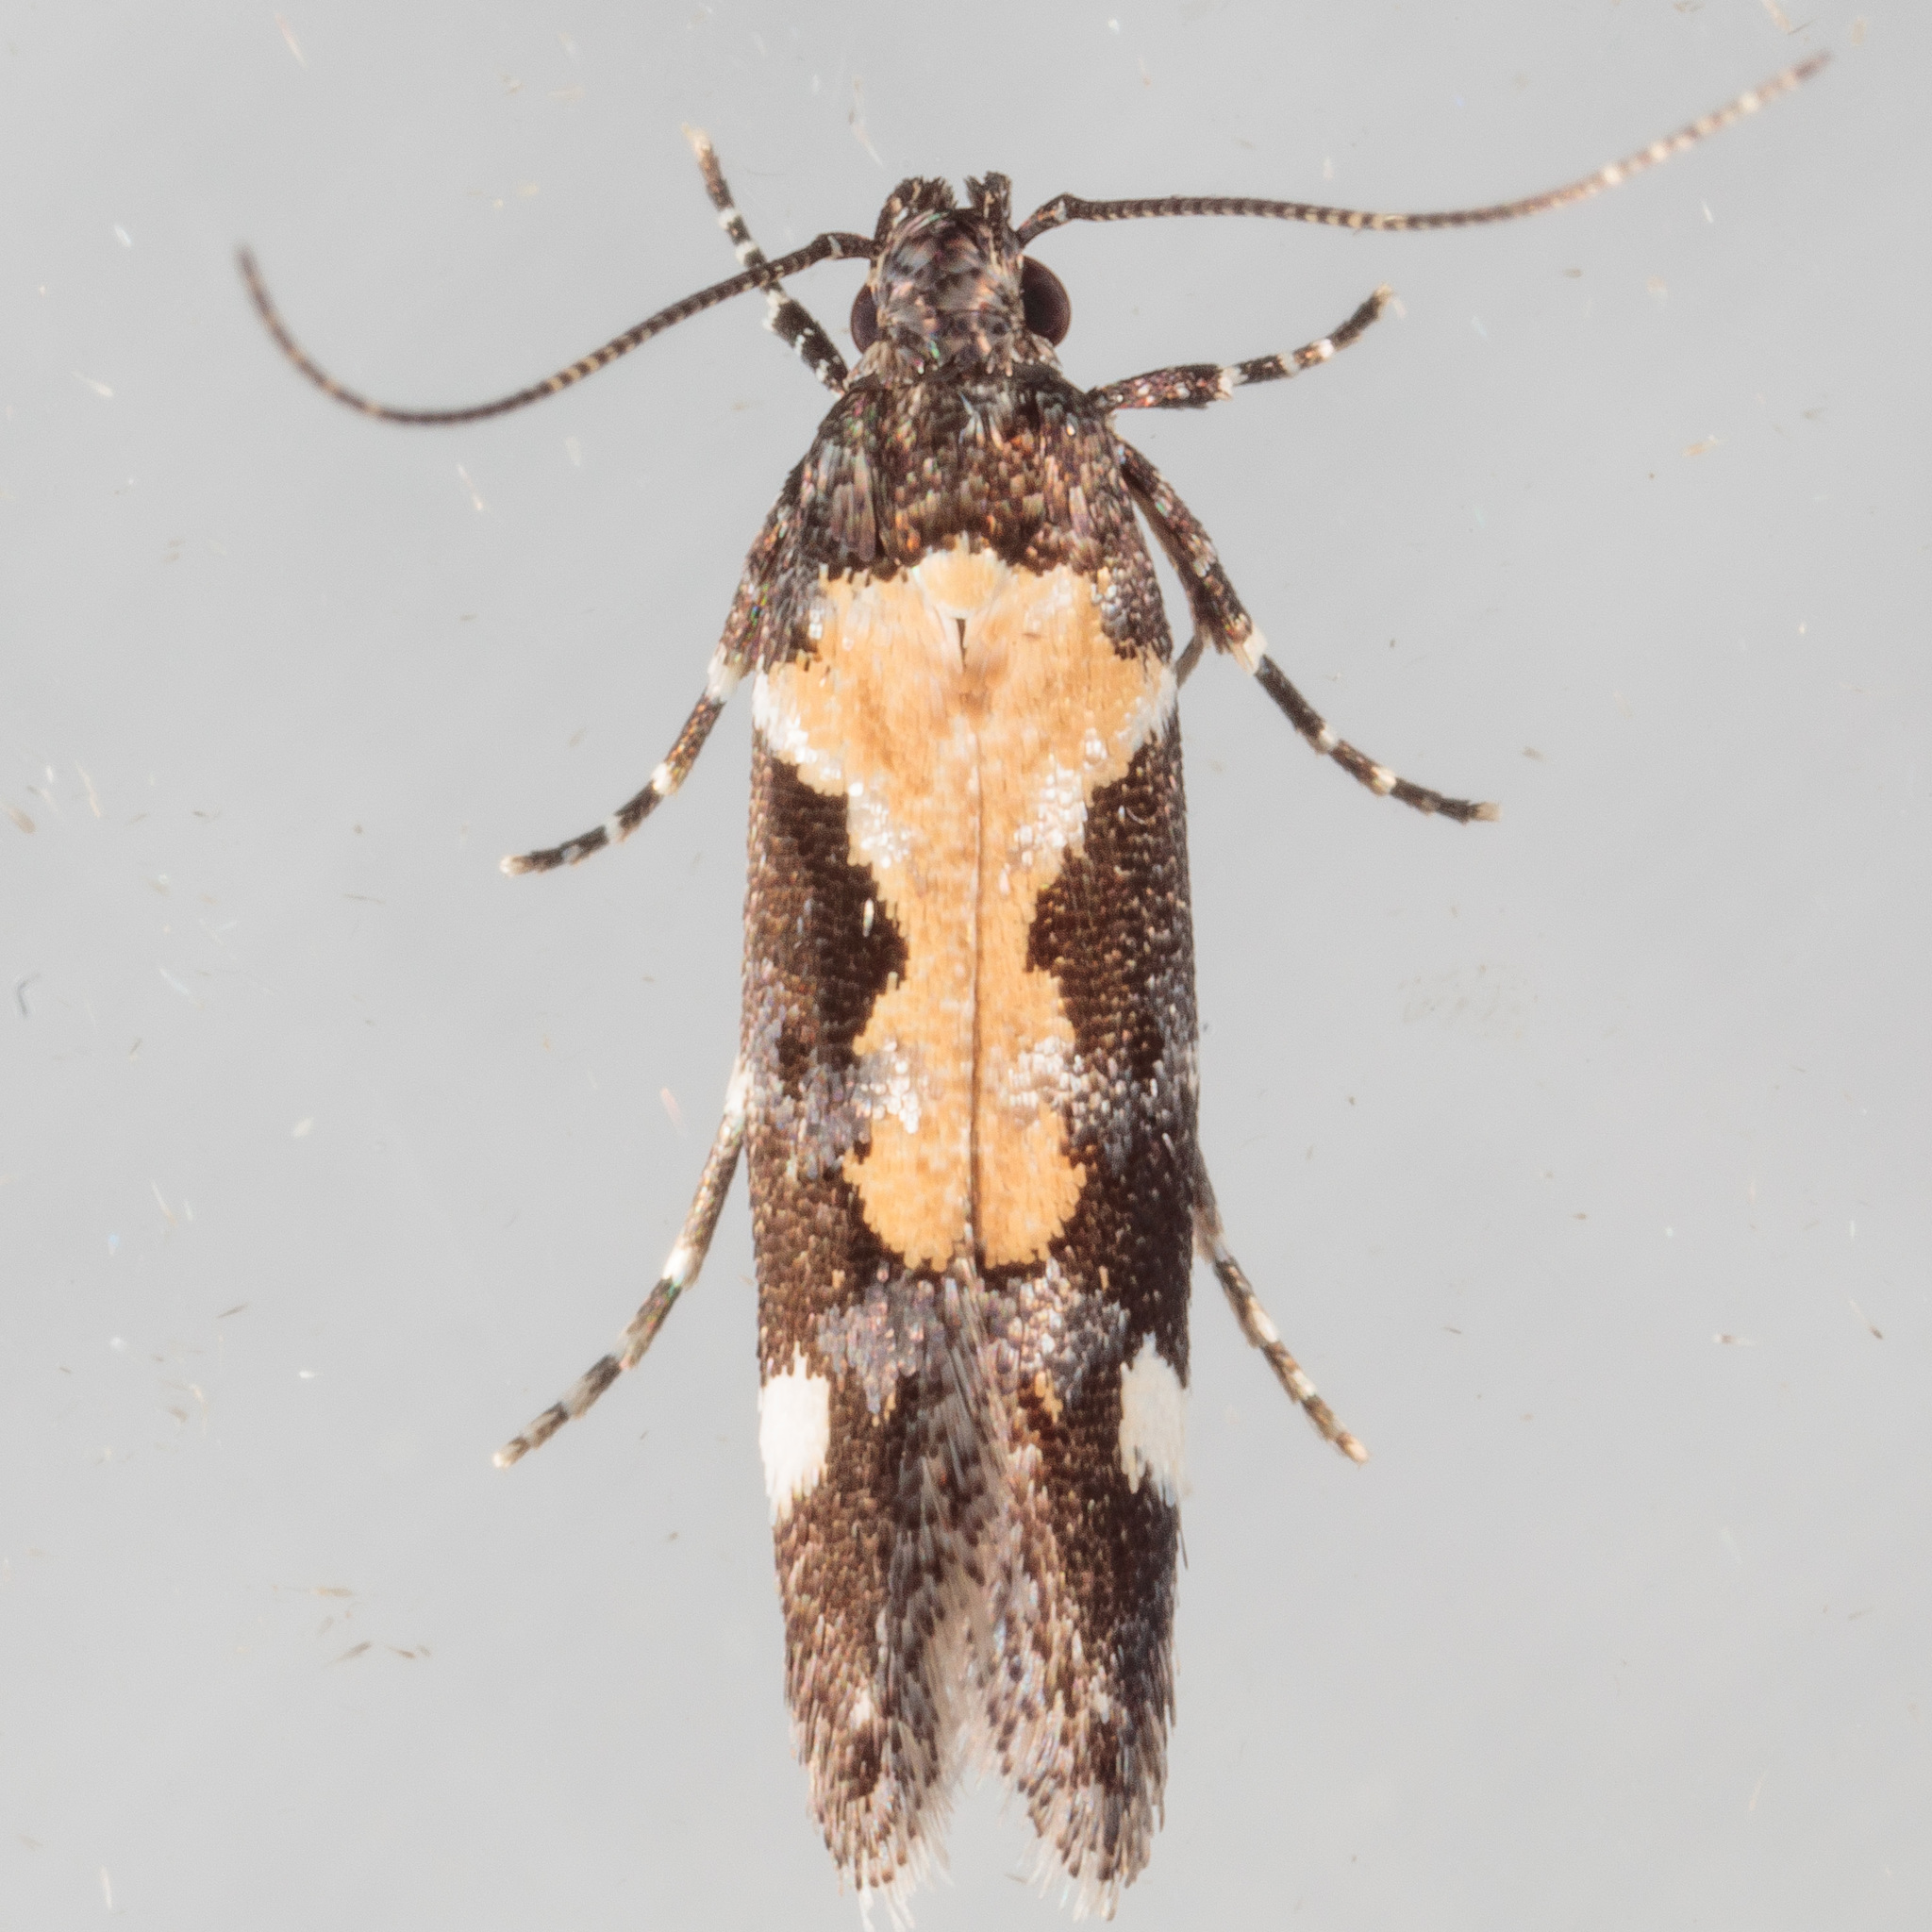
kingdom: Animalia
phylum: Arthropoda
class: Insecta
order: Lepidoptera
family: Gelechiidae
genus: Stegasta
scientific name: Stegasta bosqueella
